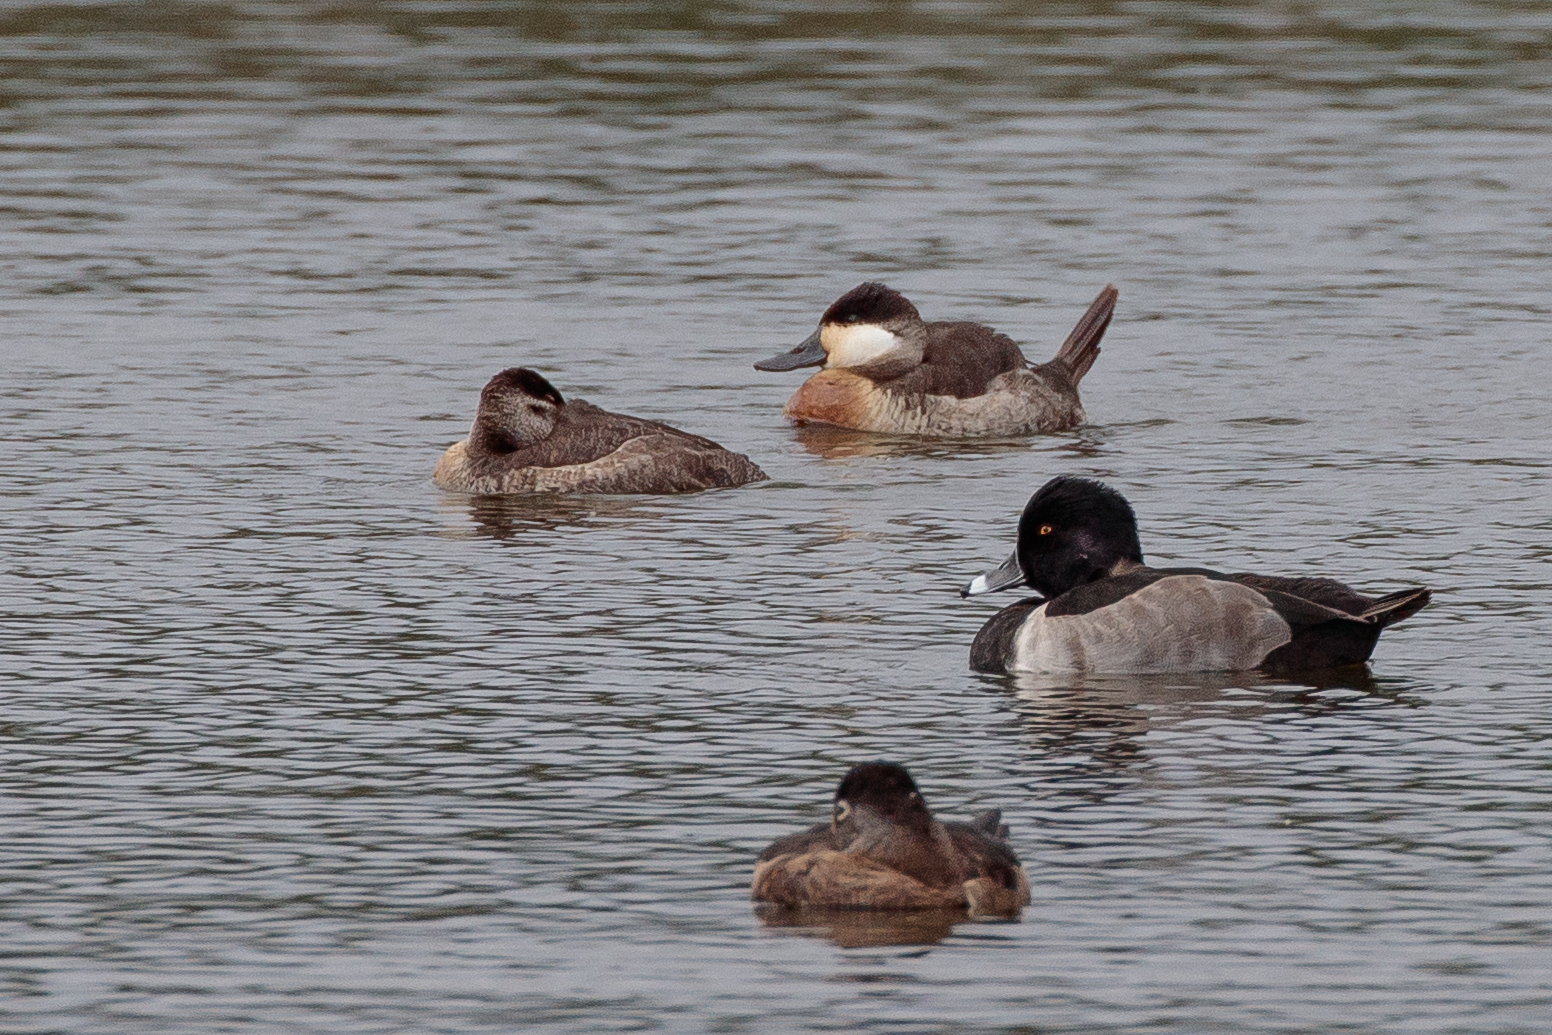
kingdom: Animalia
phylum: Chordata
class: Aves
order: Anseriformes
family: Anatidae
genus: Oxyura
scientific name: Oxyura jamaicensis
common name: Ruddy duck
